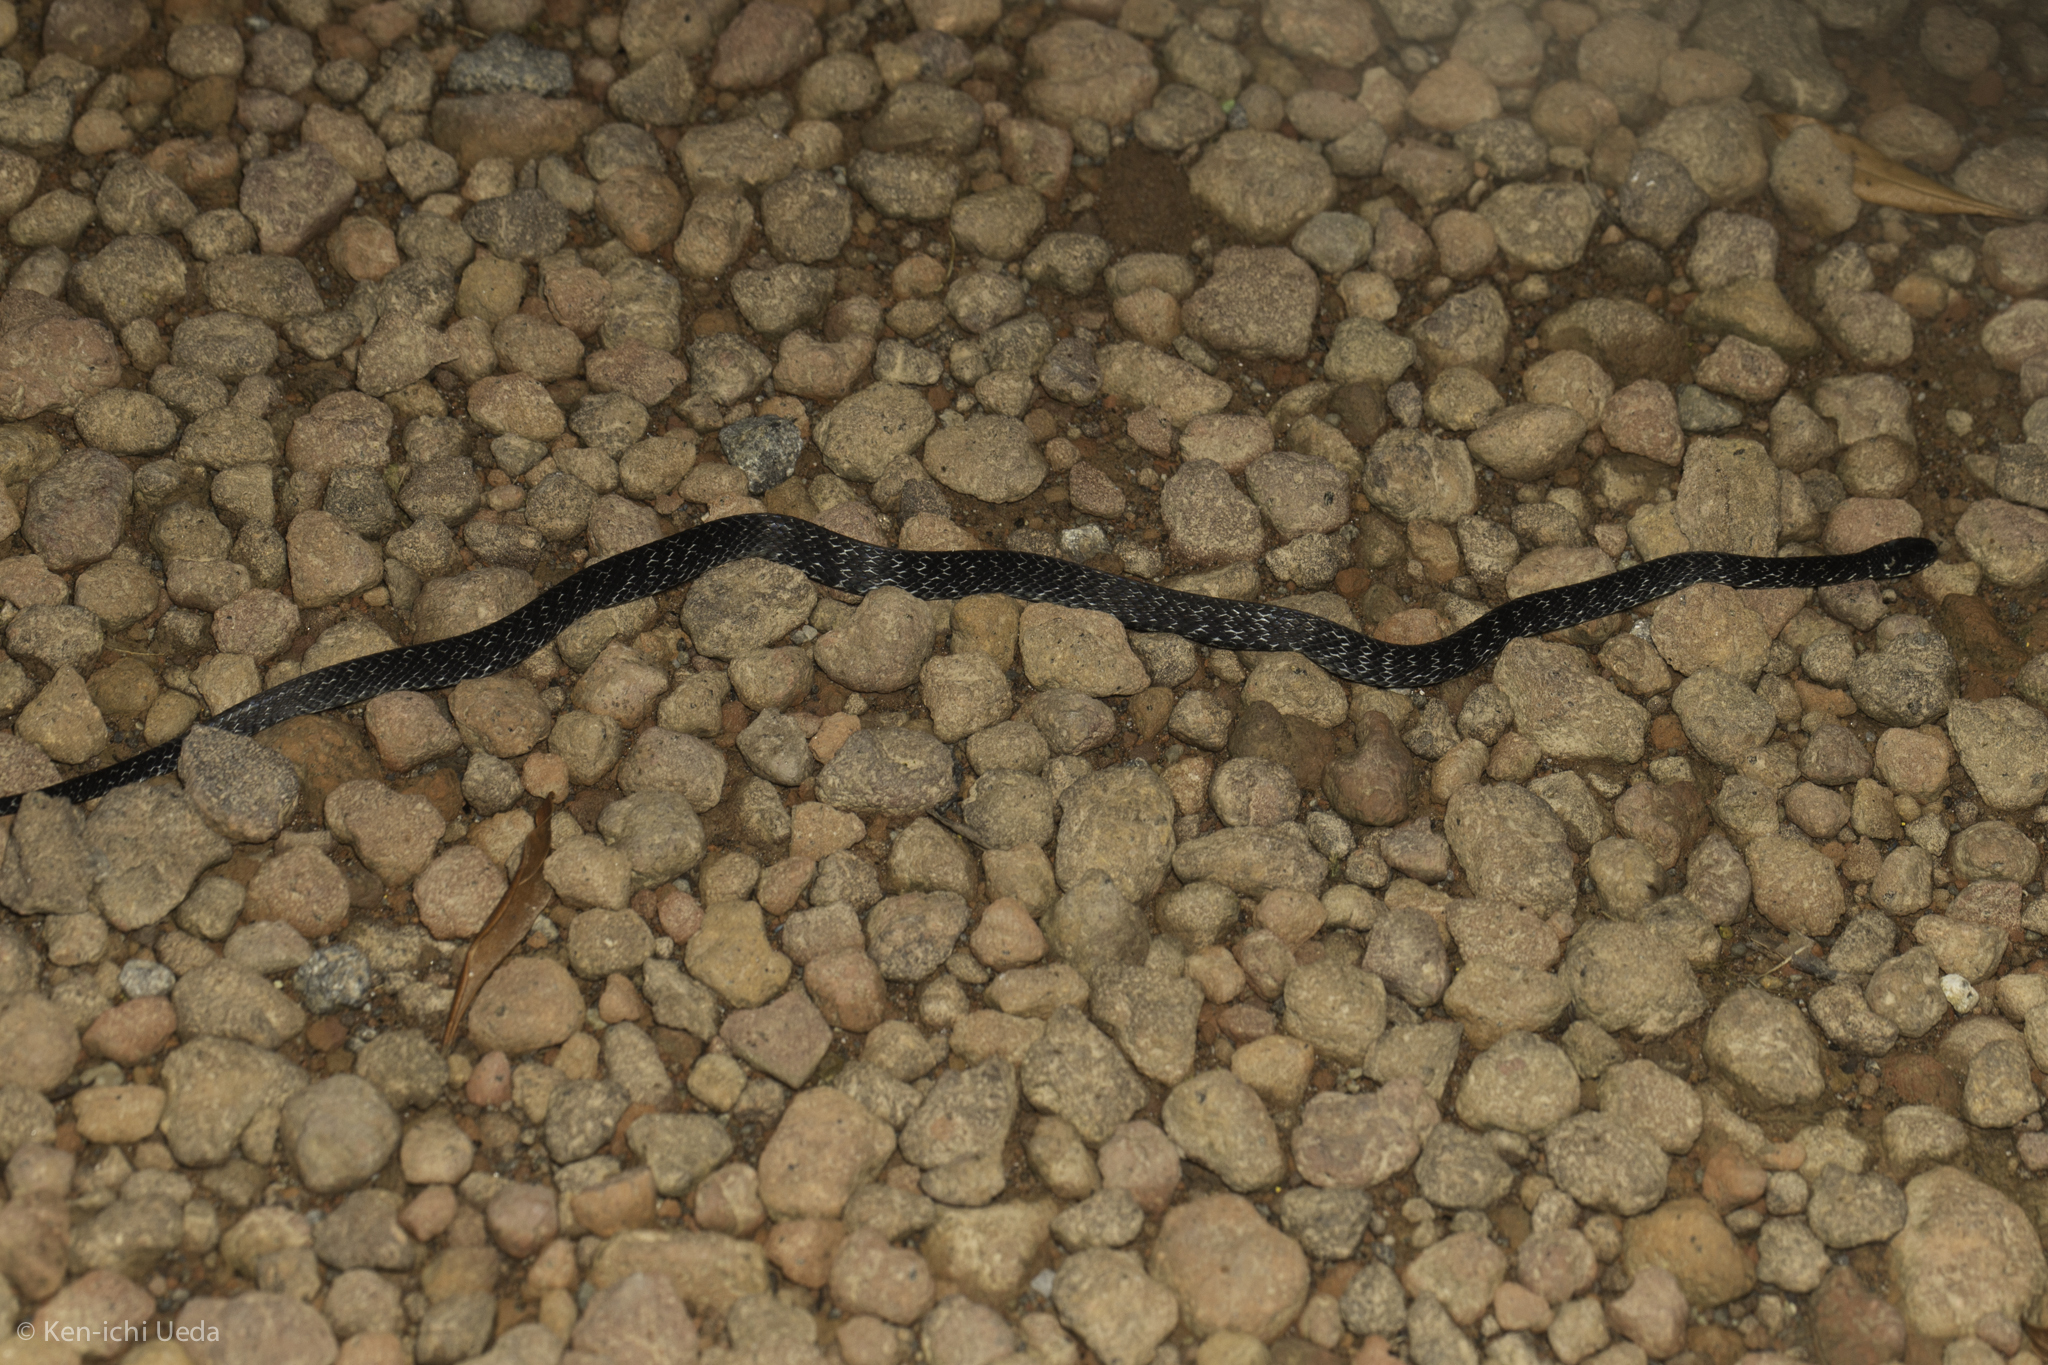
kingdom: Animalia
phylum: Chordata
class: Squamata
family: Colubridae
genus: Ninia
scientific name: Ninia psephota
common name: Cope's coffee snake
